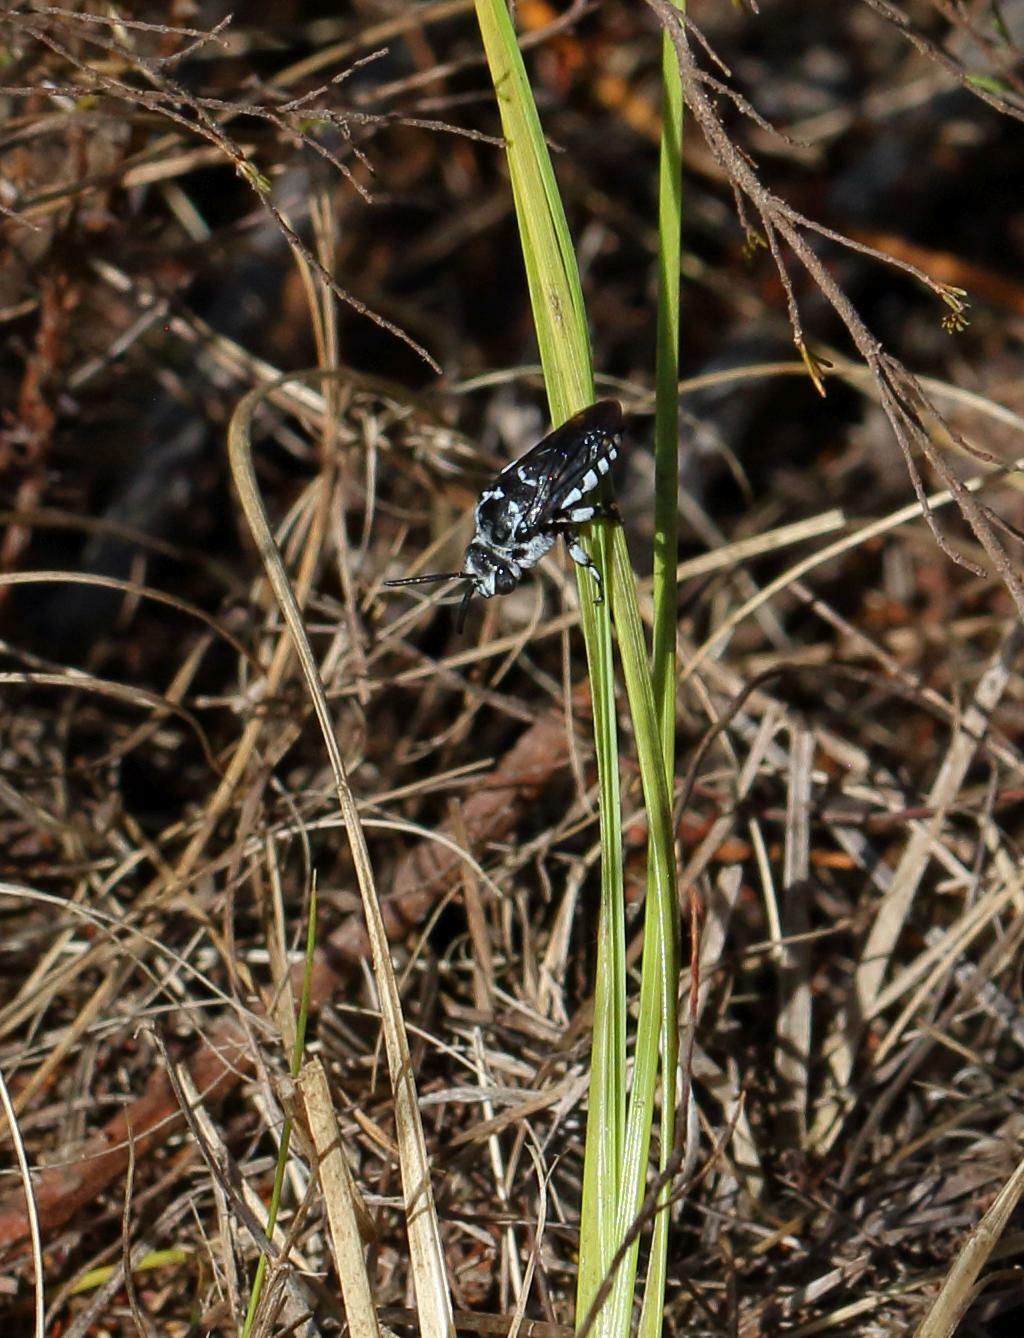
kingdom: Animalia
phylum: Arthropoda
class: Insecta
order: Hymenoptera
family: Apidae
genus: Thyreus
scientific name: Thyreus meripes
